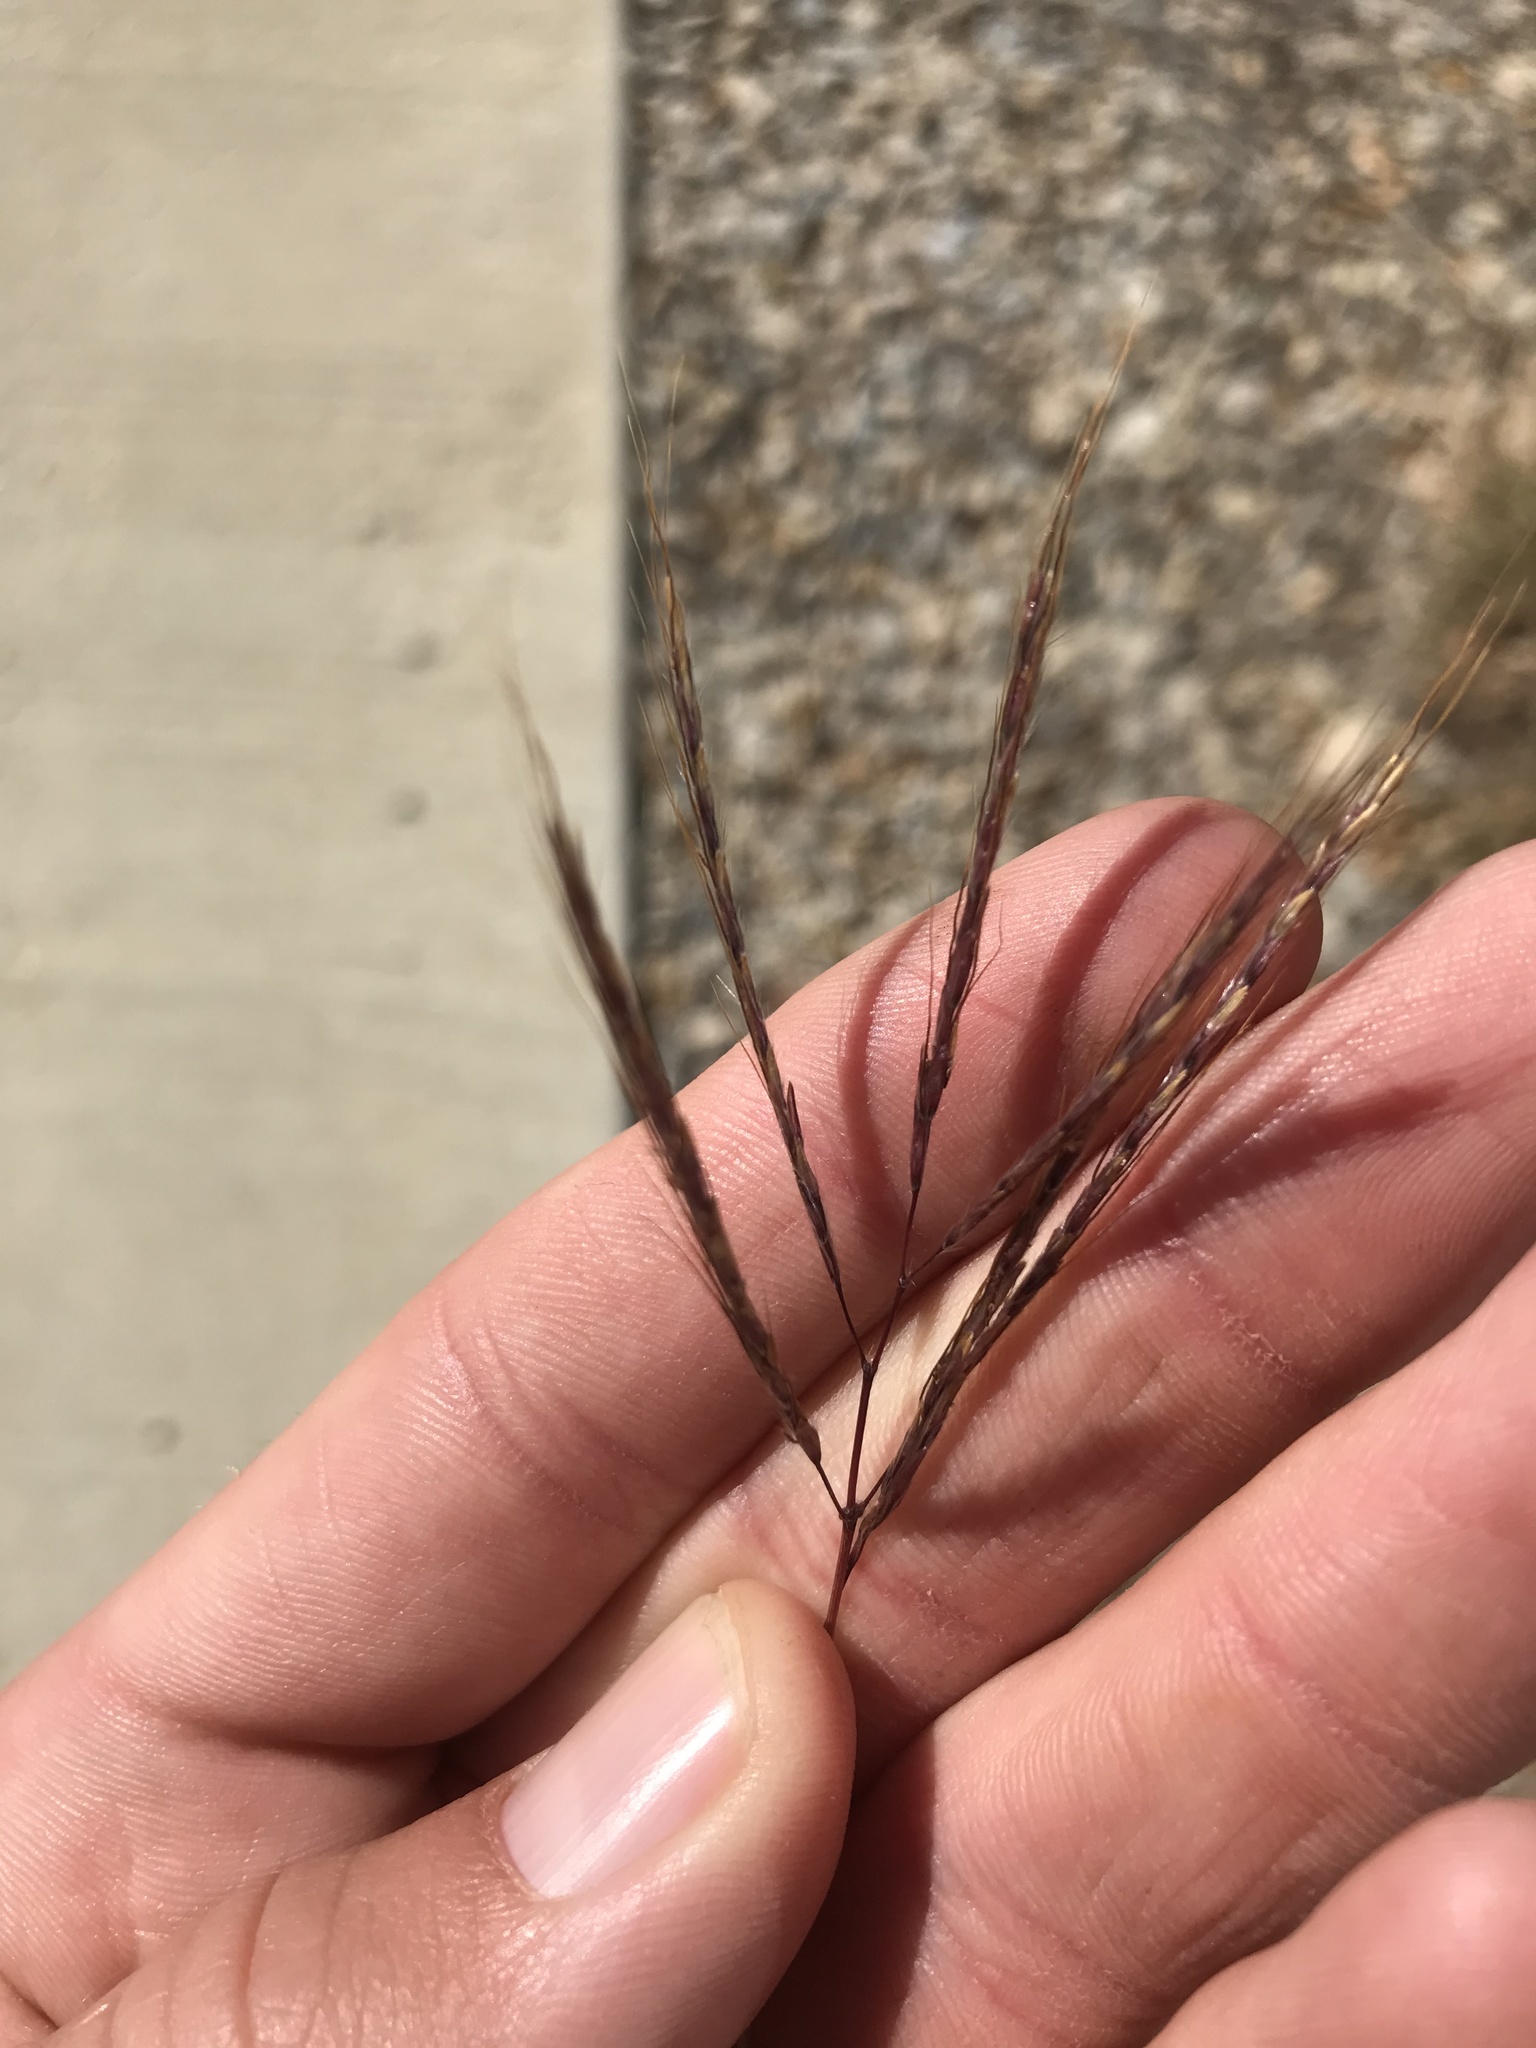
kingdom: Plantae
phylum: Tracheophyta
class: Liliopsida
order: Poales
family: Poaceae
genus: Bothriochloa
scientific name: Bothriochloa ischaemum
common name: Yellow bluestem
